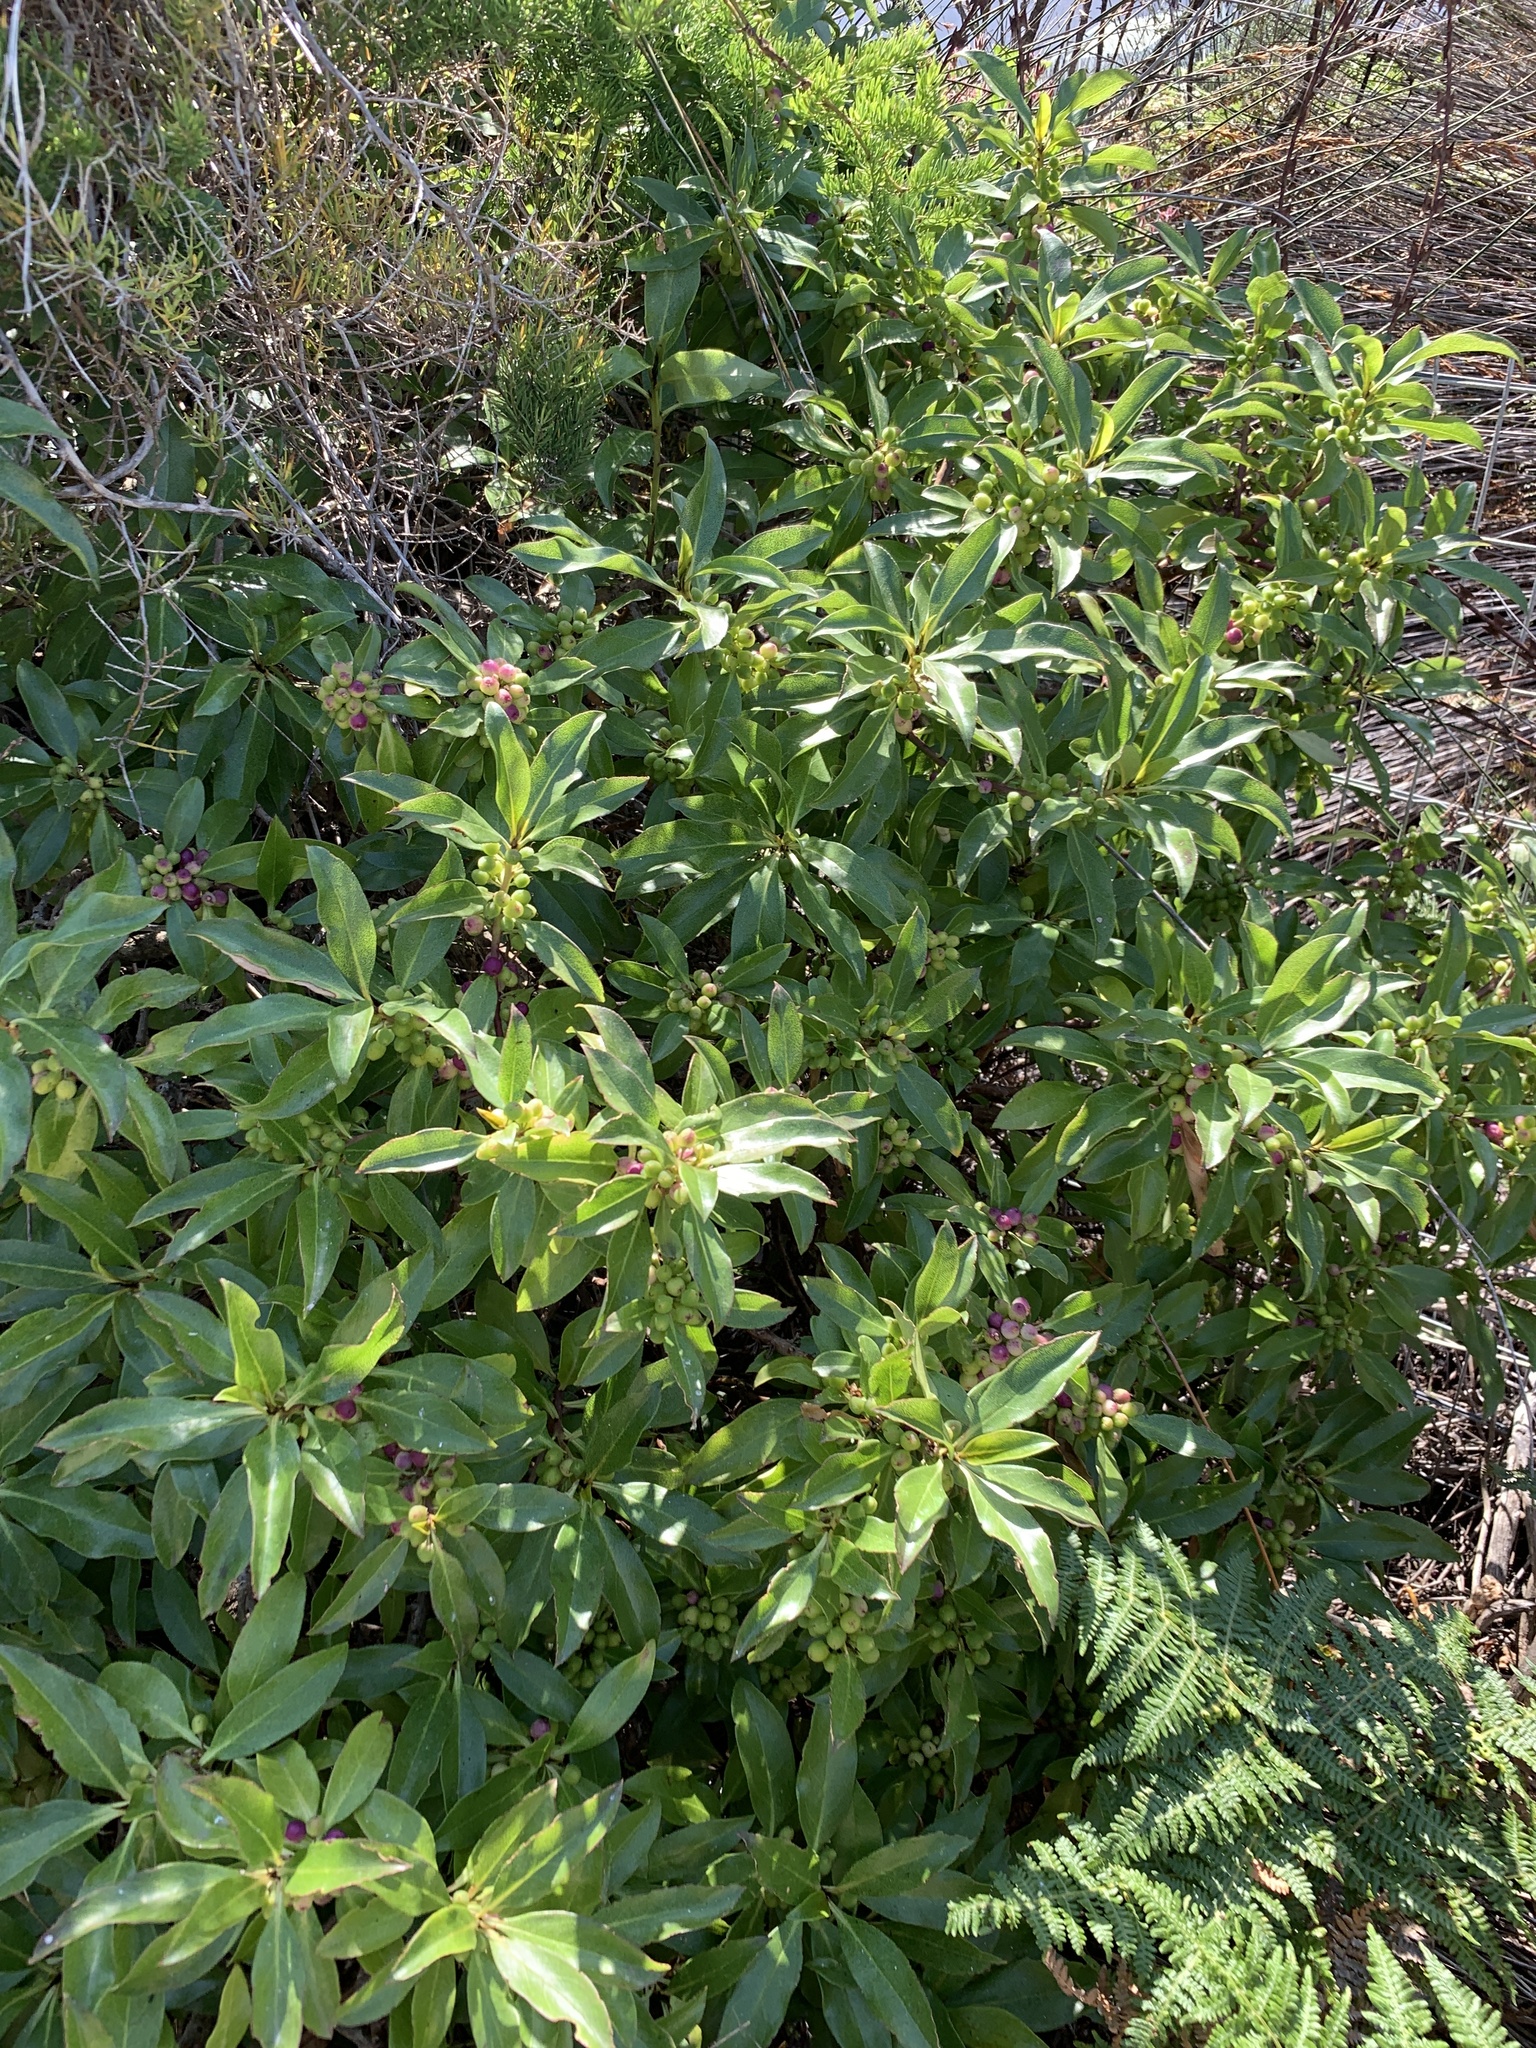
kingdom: Plantae
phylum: Tracheophyta
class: Magnoliopsida
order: Lamiales
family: Scrophulariaceae
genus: Myoporum
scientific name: Myoporum laetum
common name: Ngaio tree
